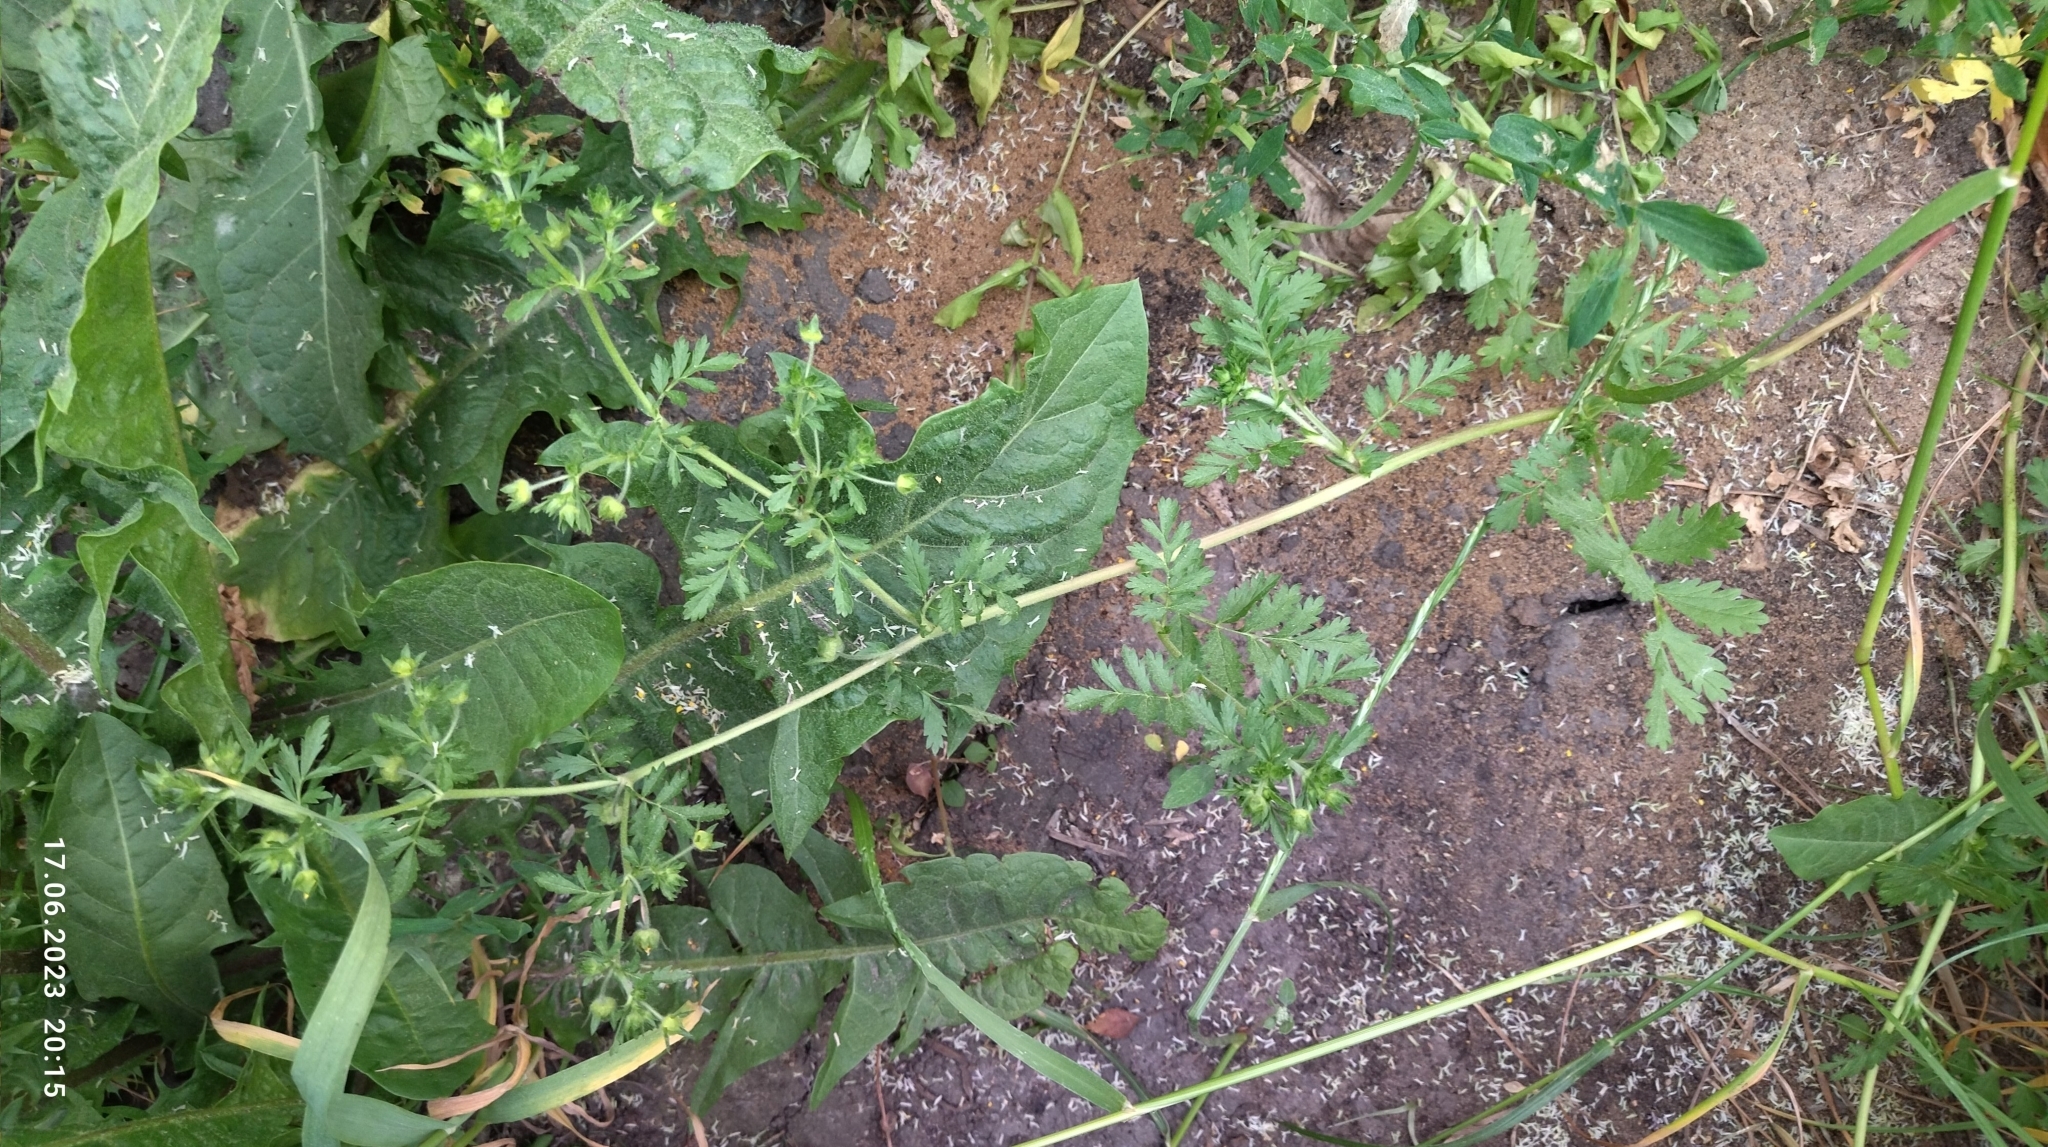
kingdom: Plantae
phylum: Tracheophyta
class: Magnoliopsida
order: Rosales
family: Rosaceae
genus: Potentilla
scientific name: Potentilla supina
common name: Prostrate cinquefoil
